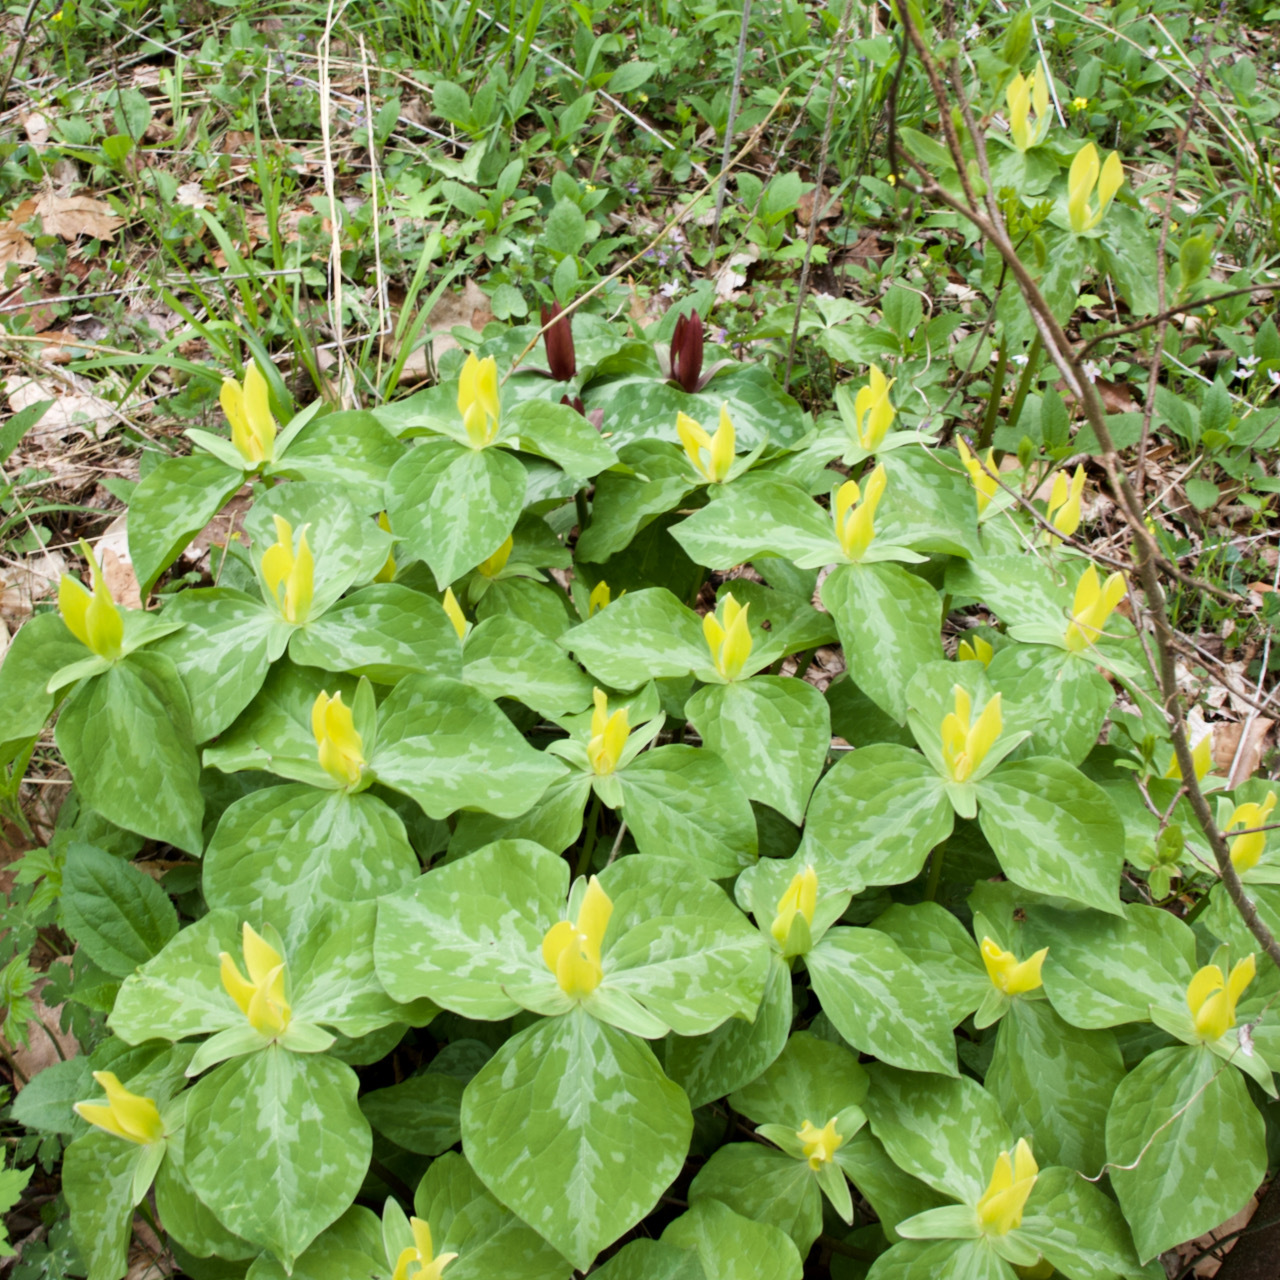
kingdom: Plantae
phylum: Tracheophyta
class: Liliopsida
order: Liliales
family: Melanthiaceae
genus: Trillium
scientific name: Trillium luteum
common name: Wax trillium
